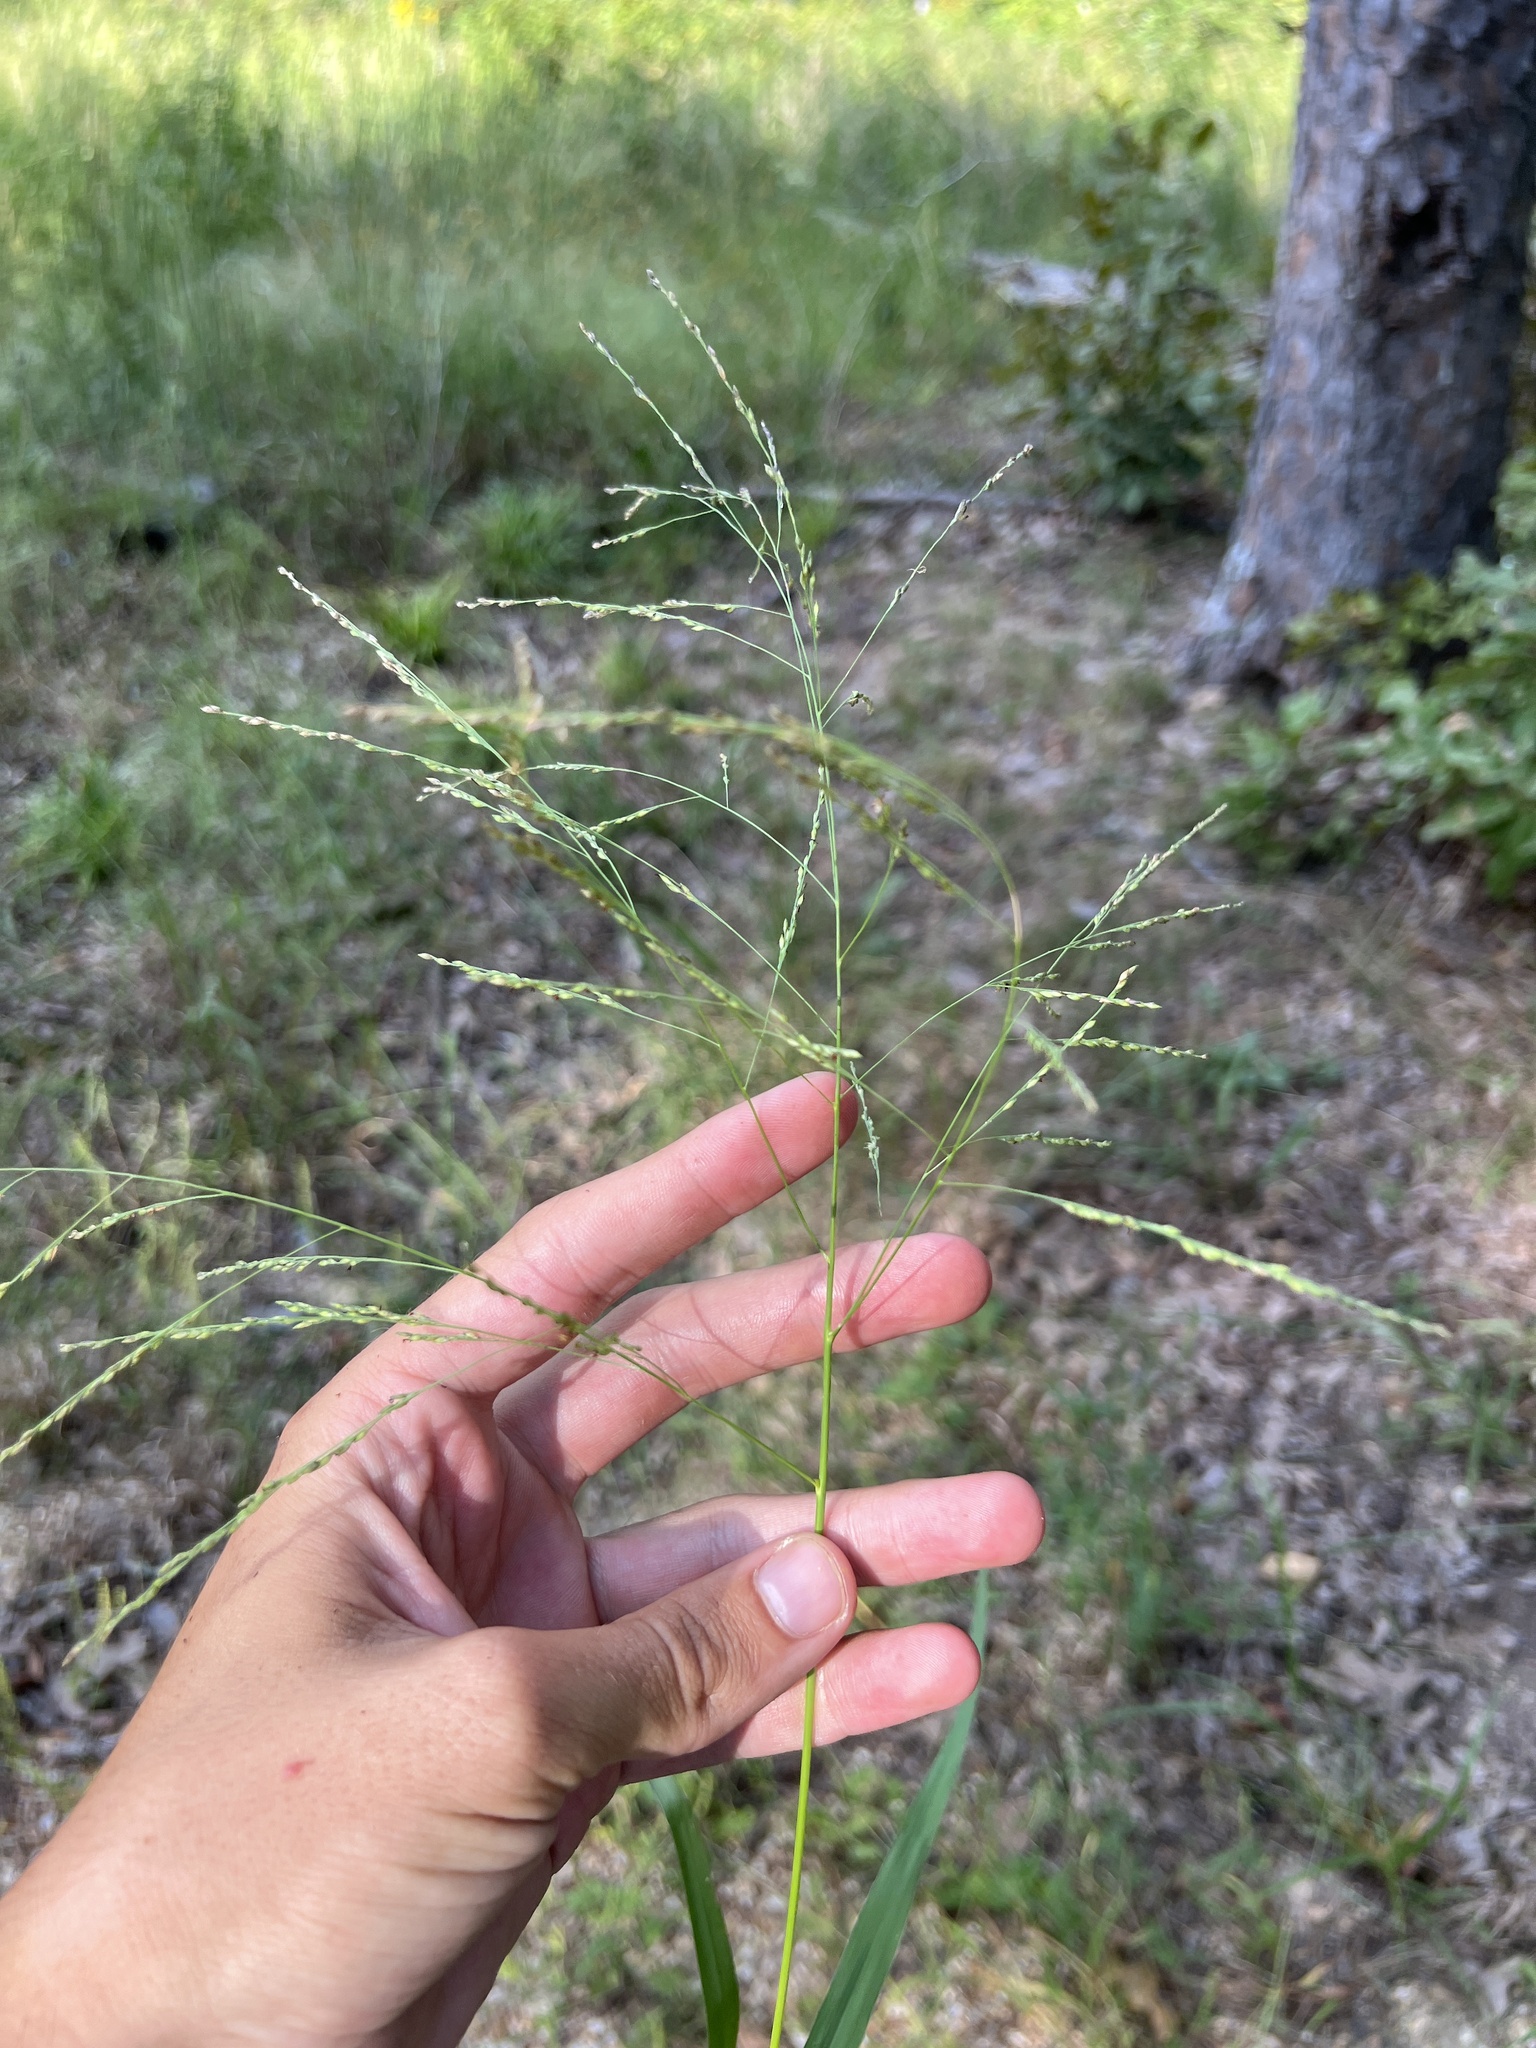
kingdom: Plantae
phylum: Tracheophyta
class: Liliopsida
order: Poales
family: Poaceae
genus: Panicum
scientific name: Panicum dichotomiflorum
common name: Autumn millet
